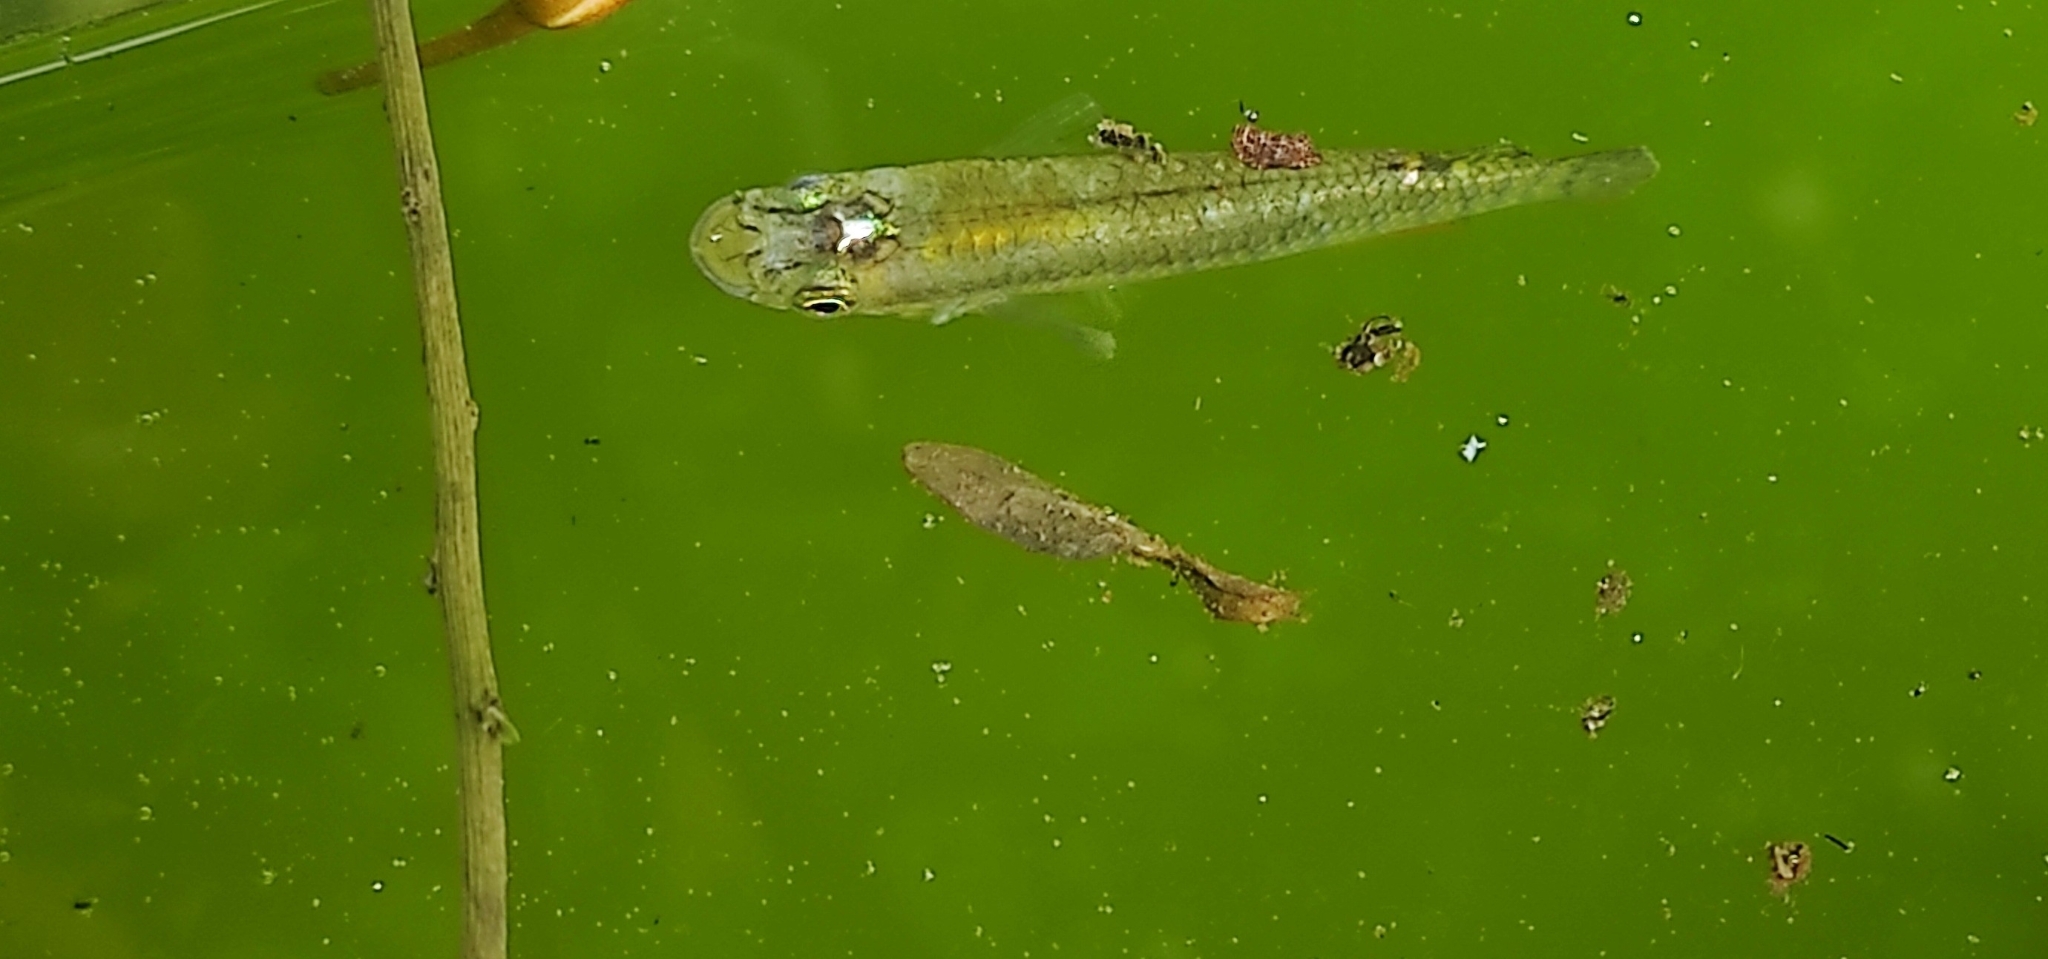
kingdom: Animalia
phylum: Chordata
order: Cyprinodontiformes
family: Aplocheilidae
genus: Aplocheilus
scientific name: Aplocheilus panchax
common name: Blue panchax
